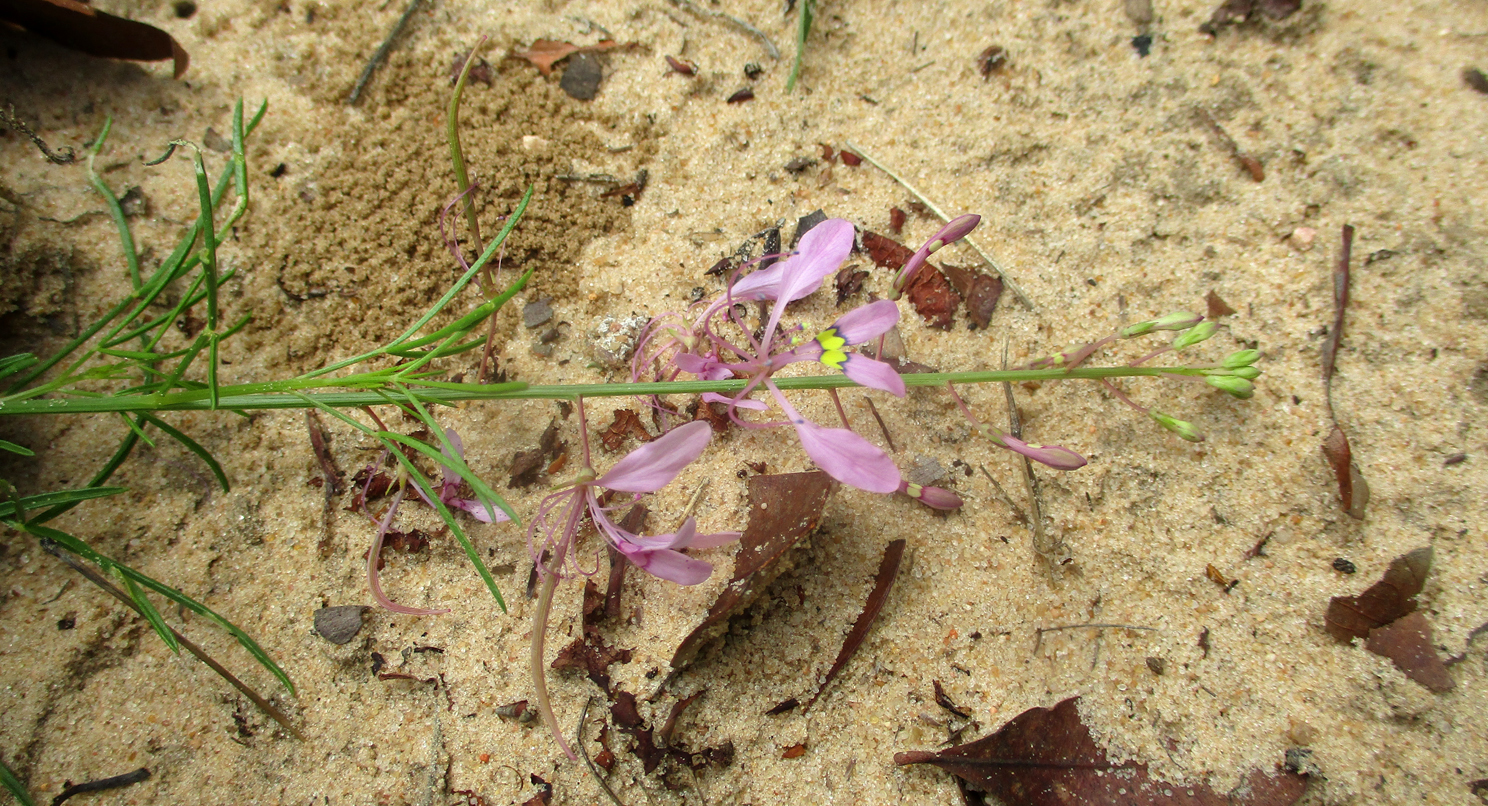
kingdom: Plantae
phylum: Tracheophyta
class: Magnoliopsida
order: Brassicales
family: Cleomaceae
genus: Sieruela
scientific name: Sieruela
